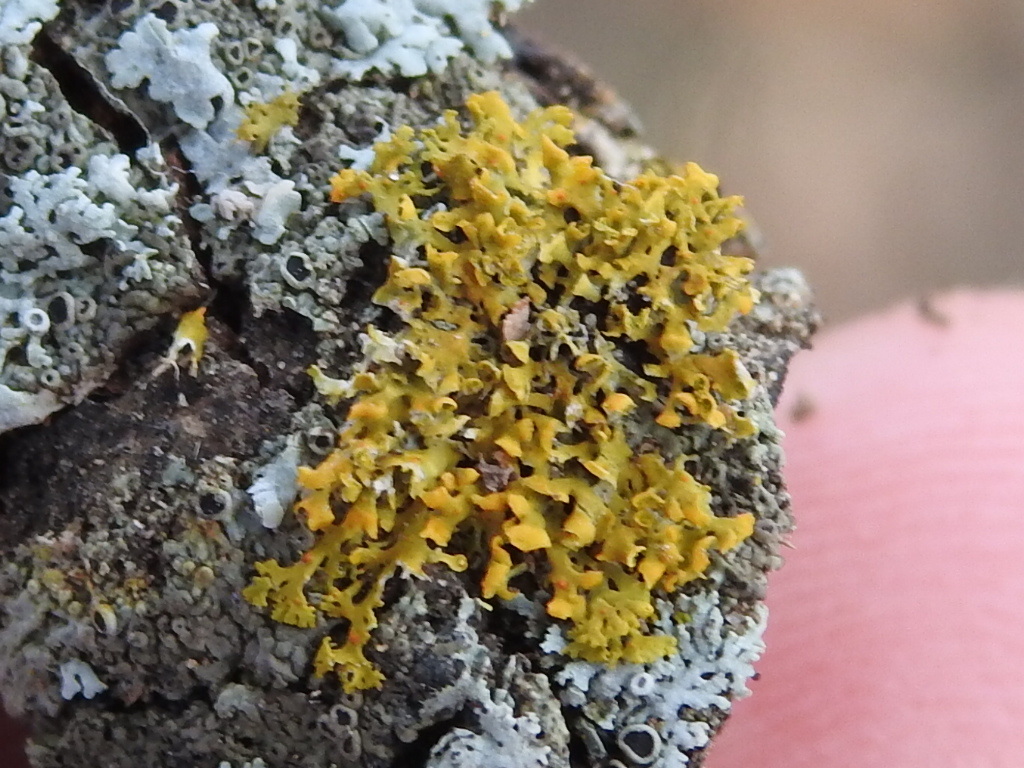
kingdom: Fungi
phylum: Ascomycota
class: Lecanoromycetes
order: Teloschistales
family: Teloschistaceae
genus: Gallowayella
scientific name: Gallowayella weberi
